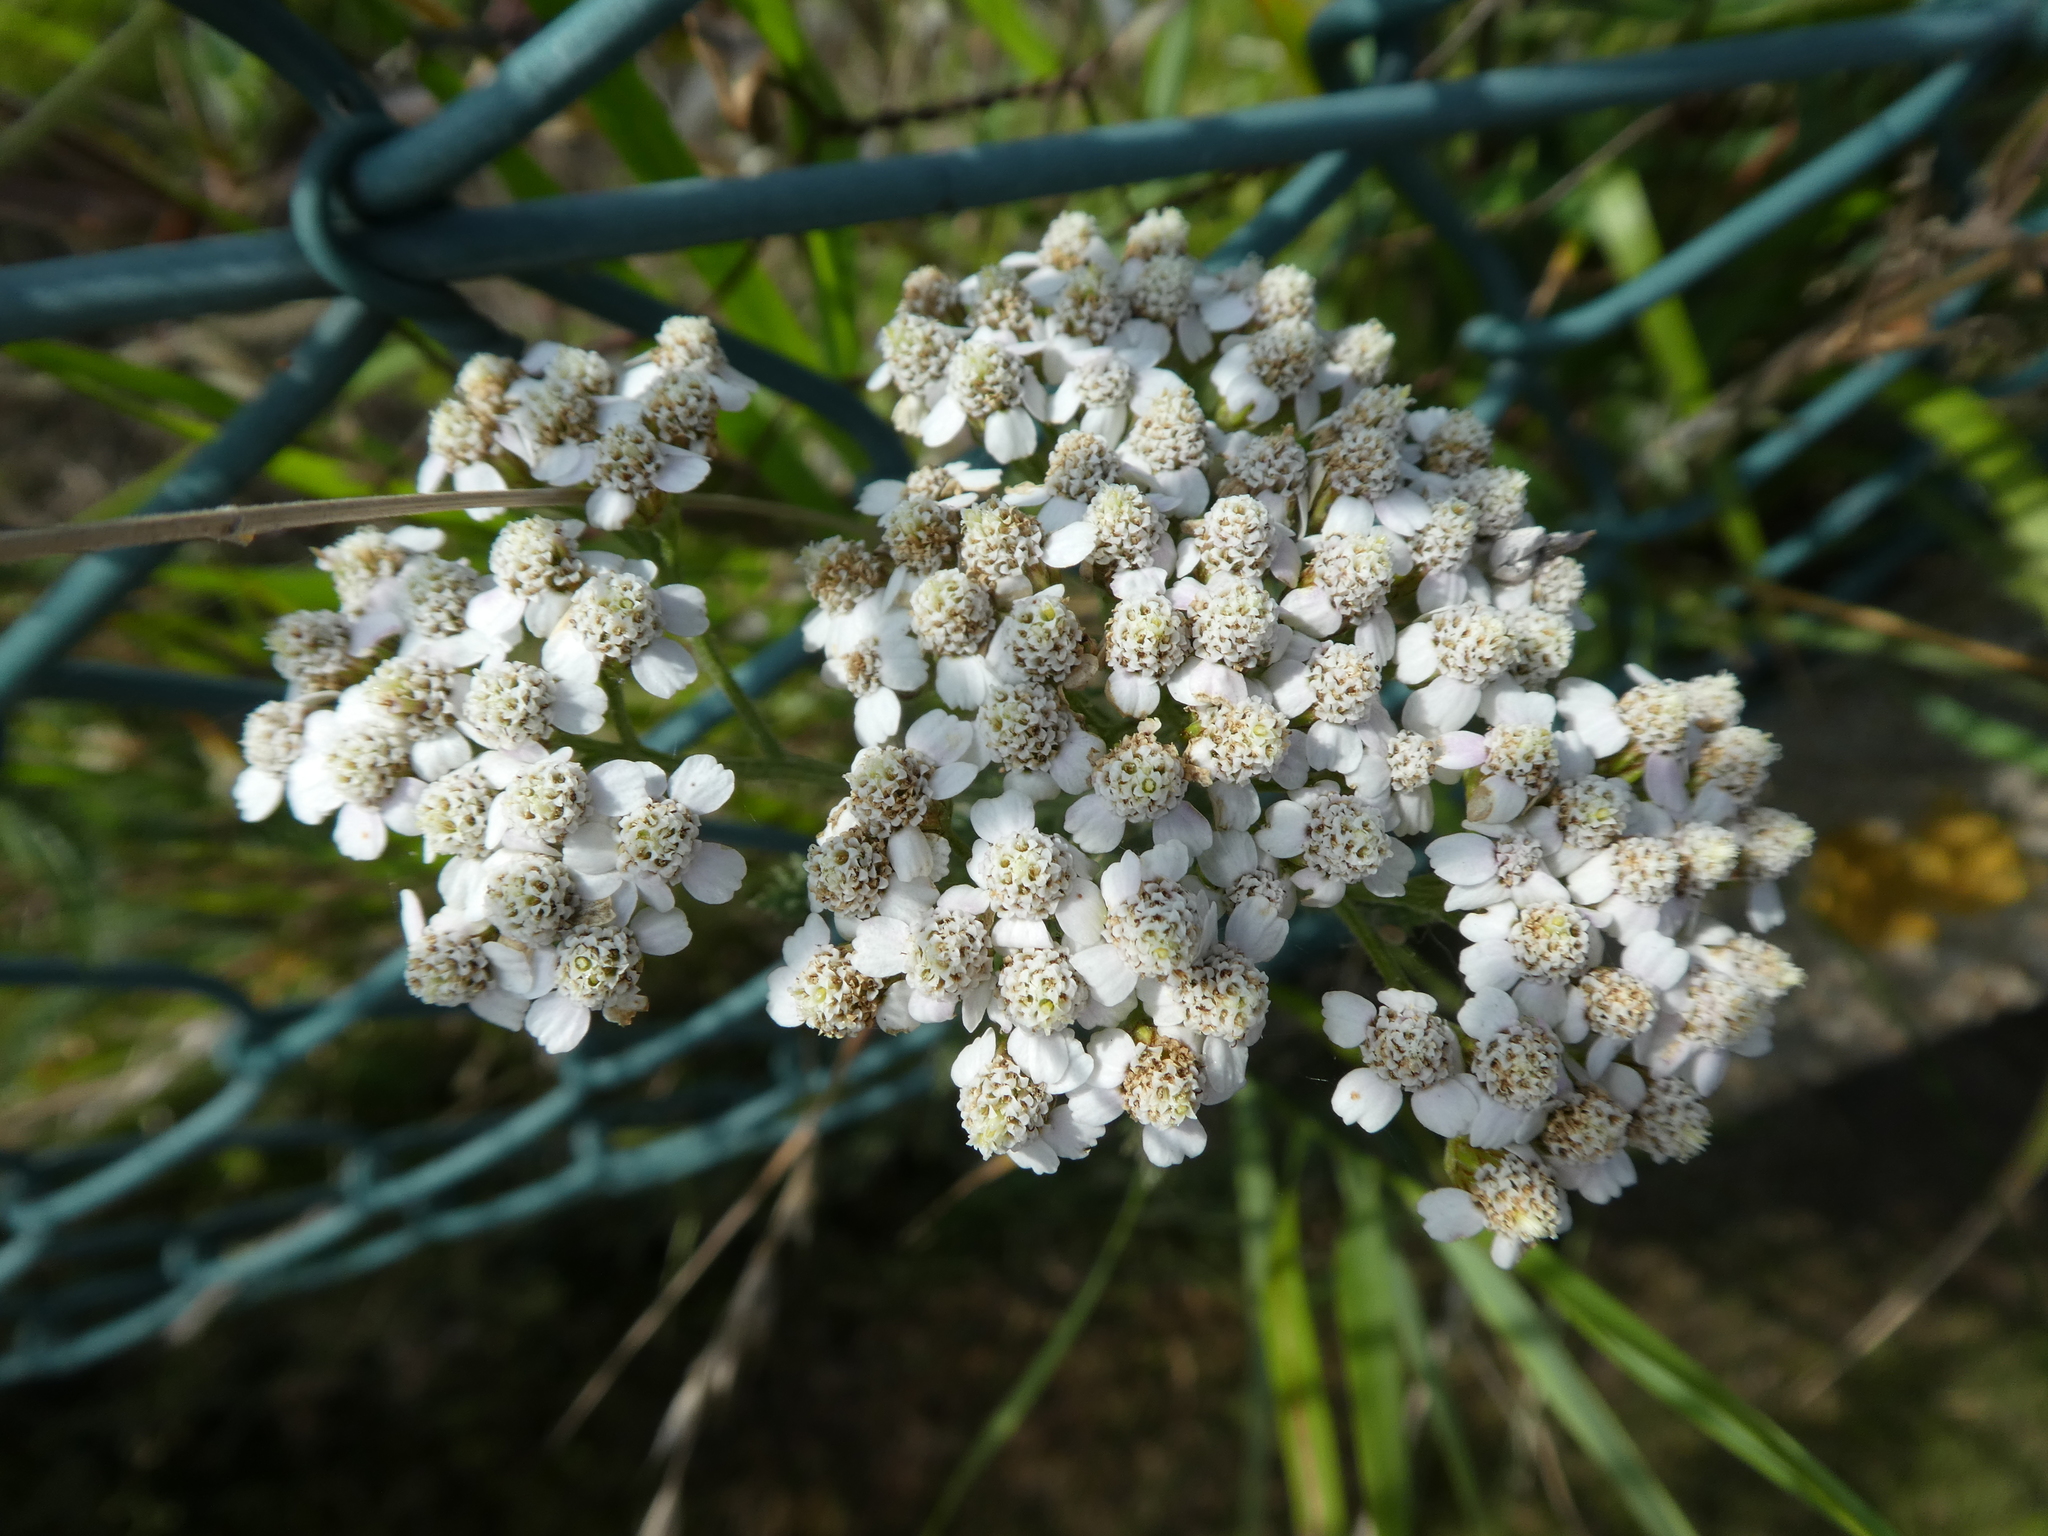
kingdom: Plantae
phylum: Tracheophyta
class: Magnoliopsida
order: Asterales
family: Asteraceae
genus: Achillea
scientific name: Achillea millefolium
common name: Yarrow
